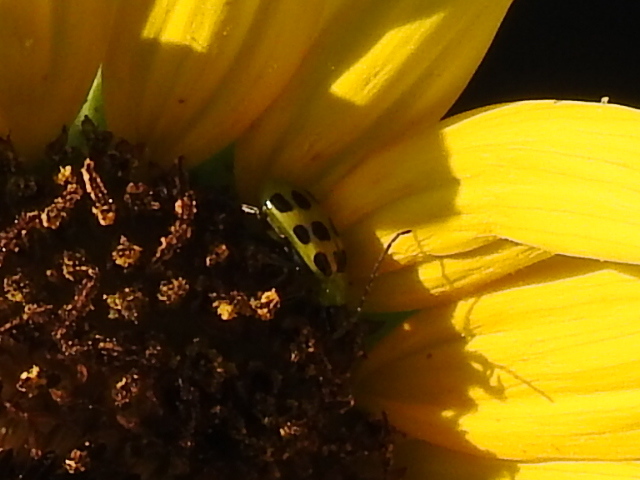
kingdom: Animalia
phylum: Arthropoda
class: Insecta
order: Coleoptera
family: Chrysomelidae
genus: Diabrotica
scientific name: Diabrotica undecimpunctata
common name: Spotted cucumber beetle
